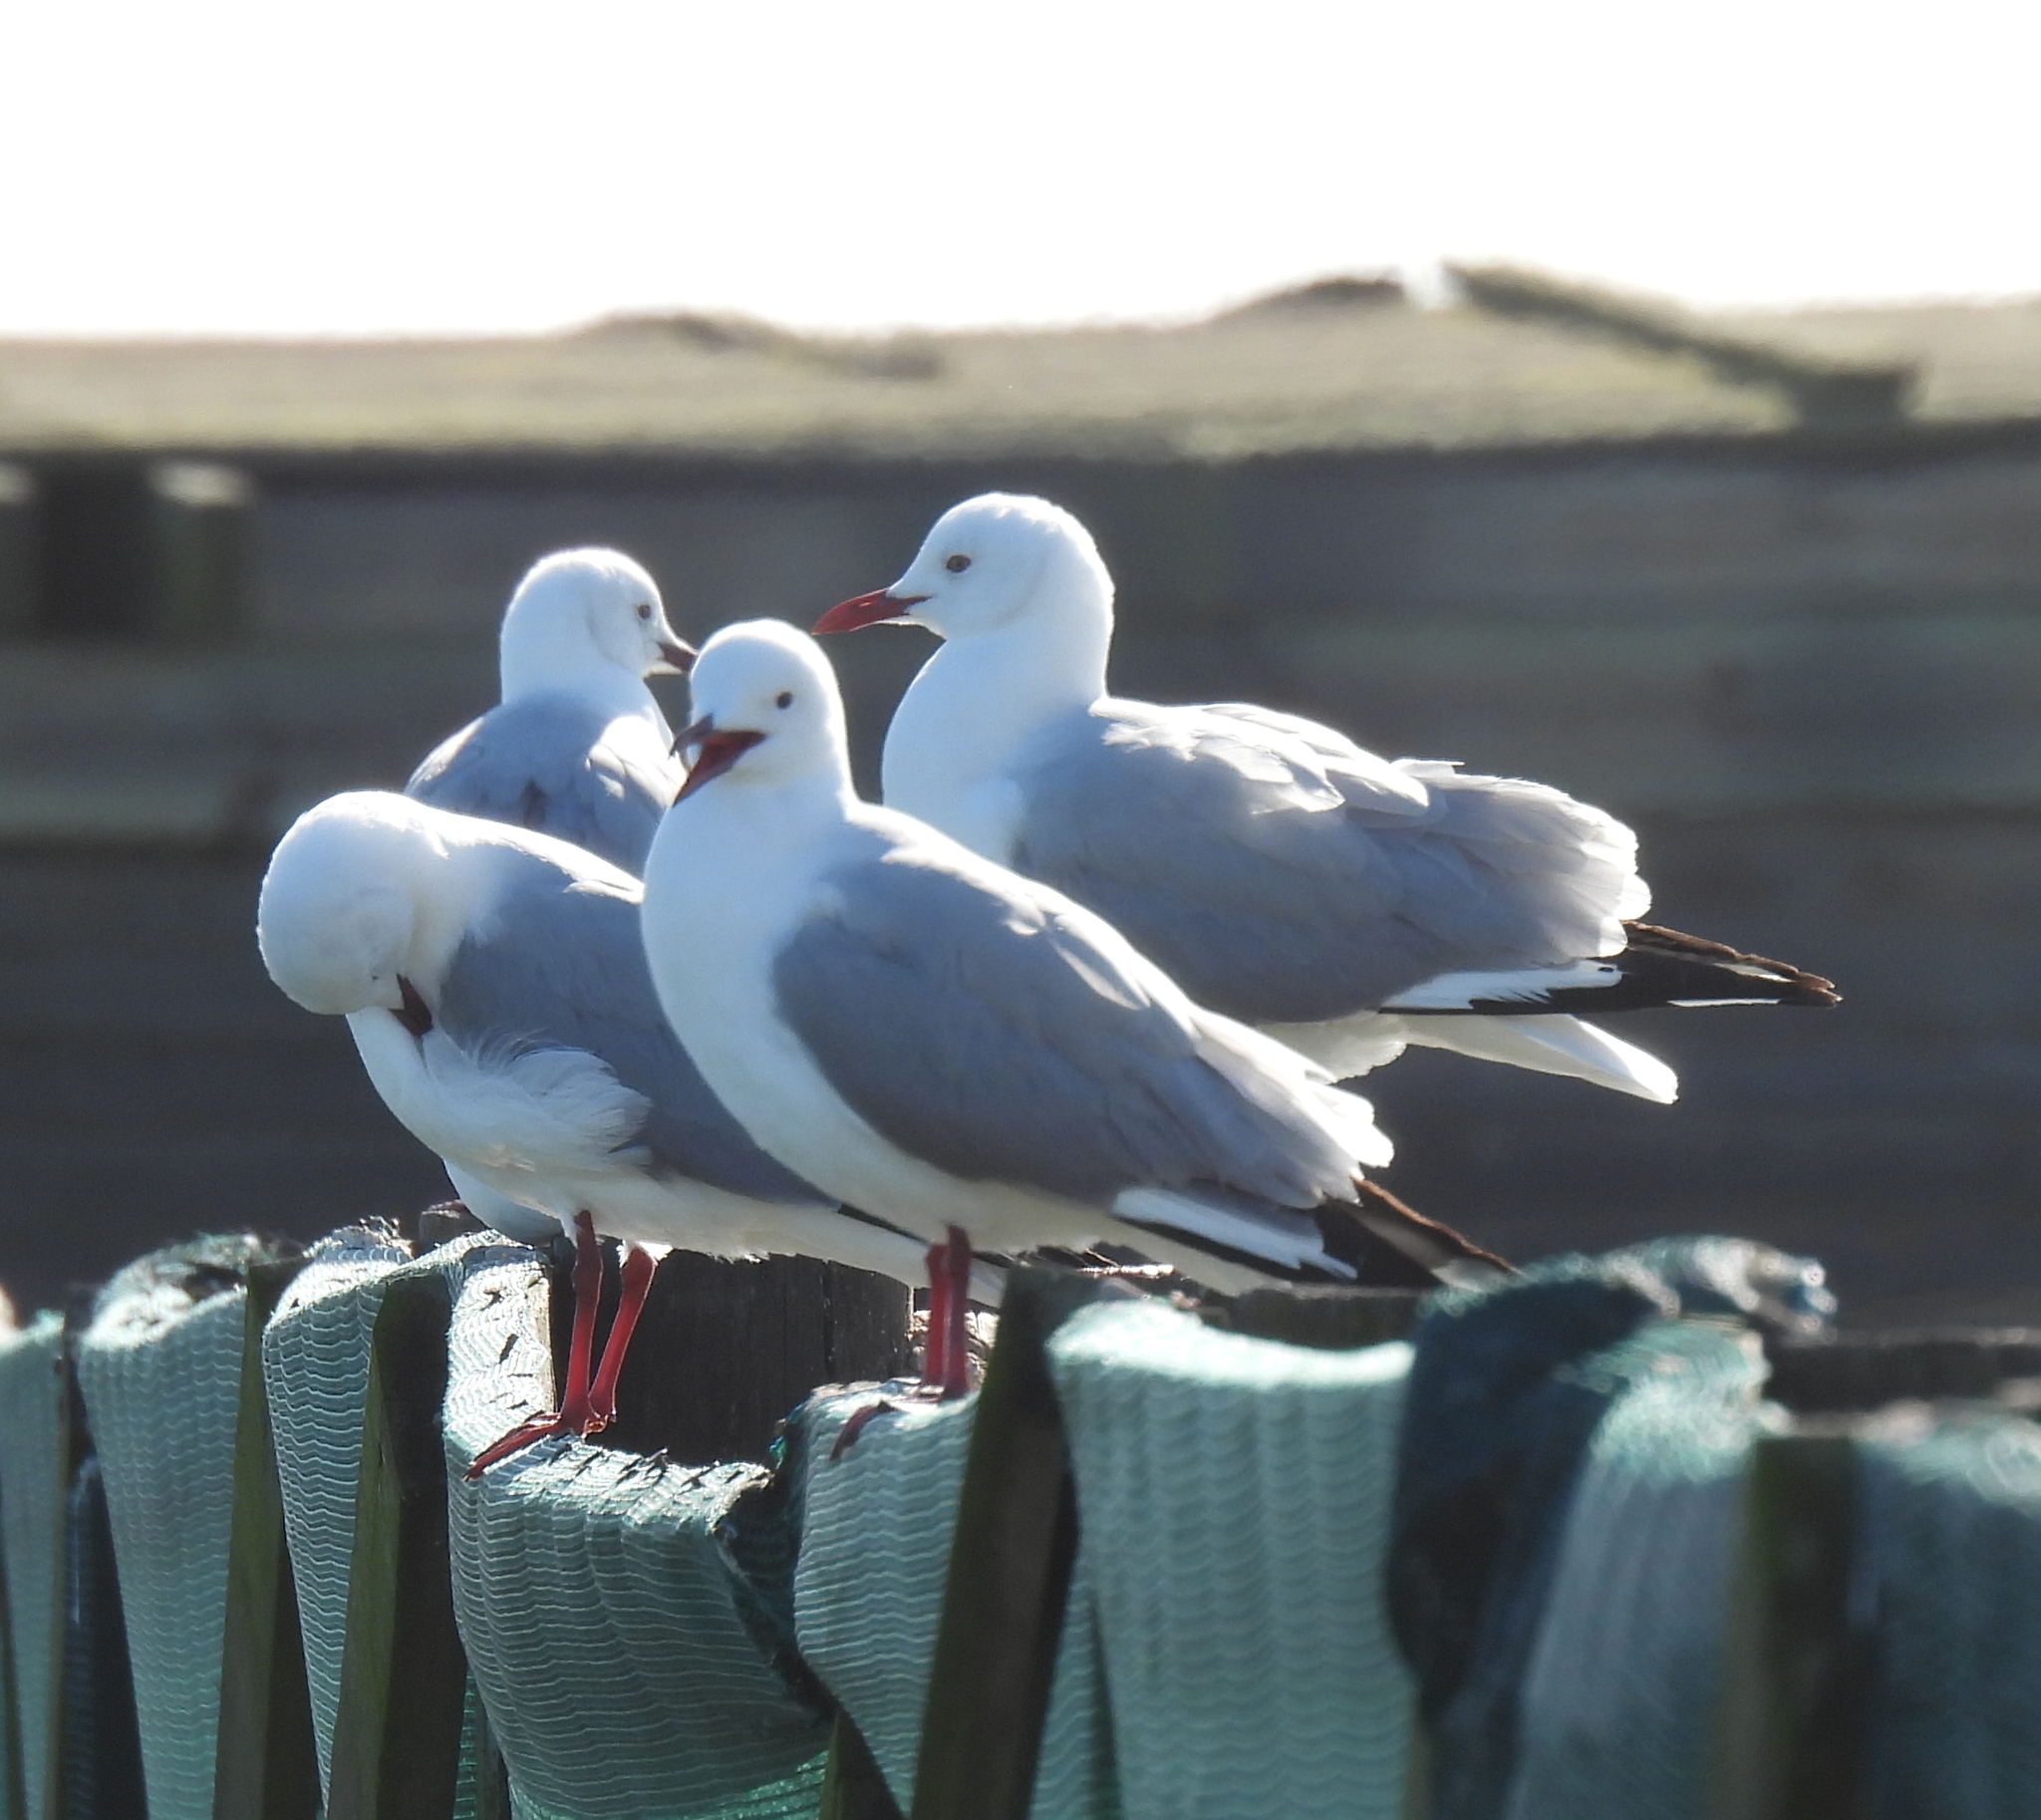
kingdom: Animalia
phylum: Chordata
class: Aves
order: Charadriiformes
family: Laridae
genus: Chroicocephalus
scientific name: Chroicocephalus hartlaubii
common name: Hartlaub's gull
